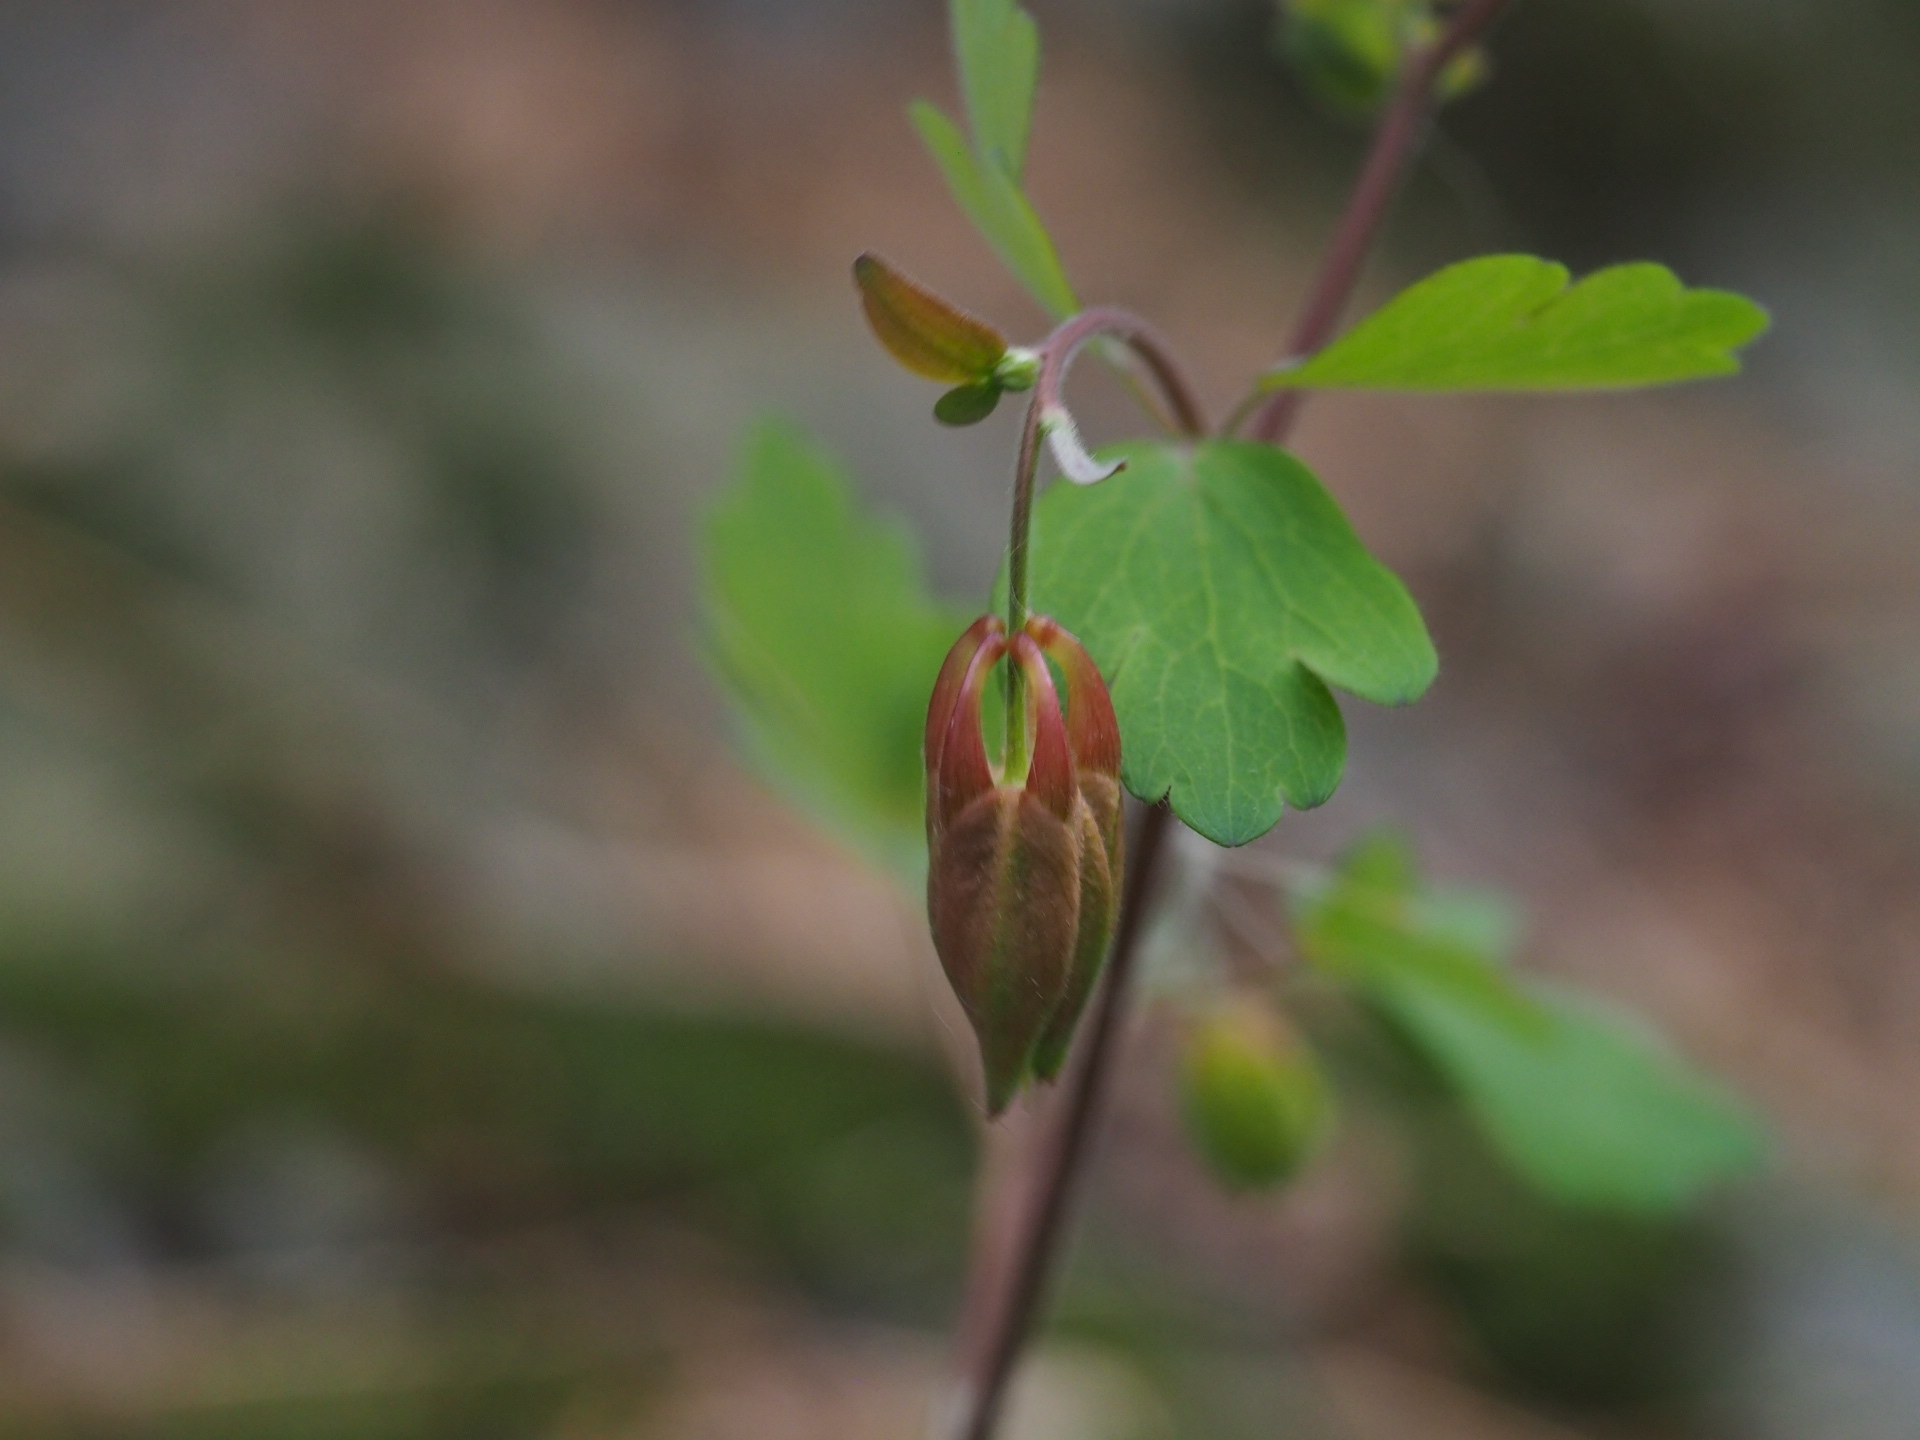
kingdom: Plantae
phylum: Tracheophyta
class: Magnoliopsida
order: Ranunculales
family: Ranunculaceae
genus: Aquilegia
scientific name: Aquilegia canadensis
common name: American columbine
